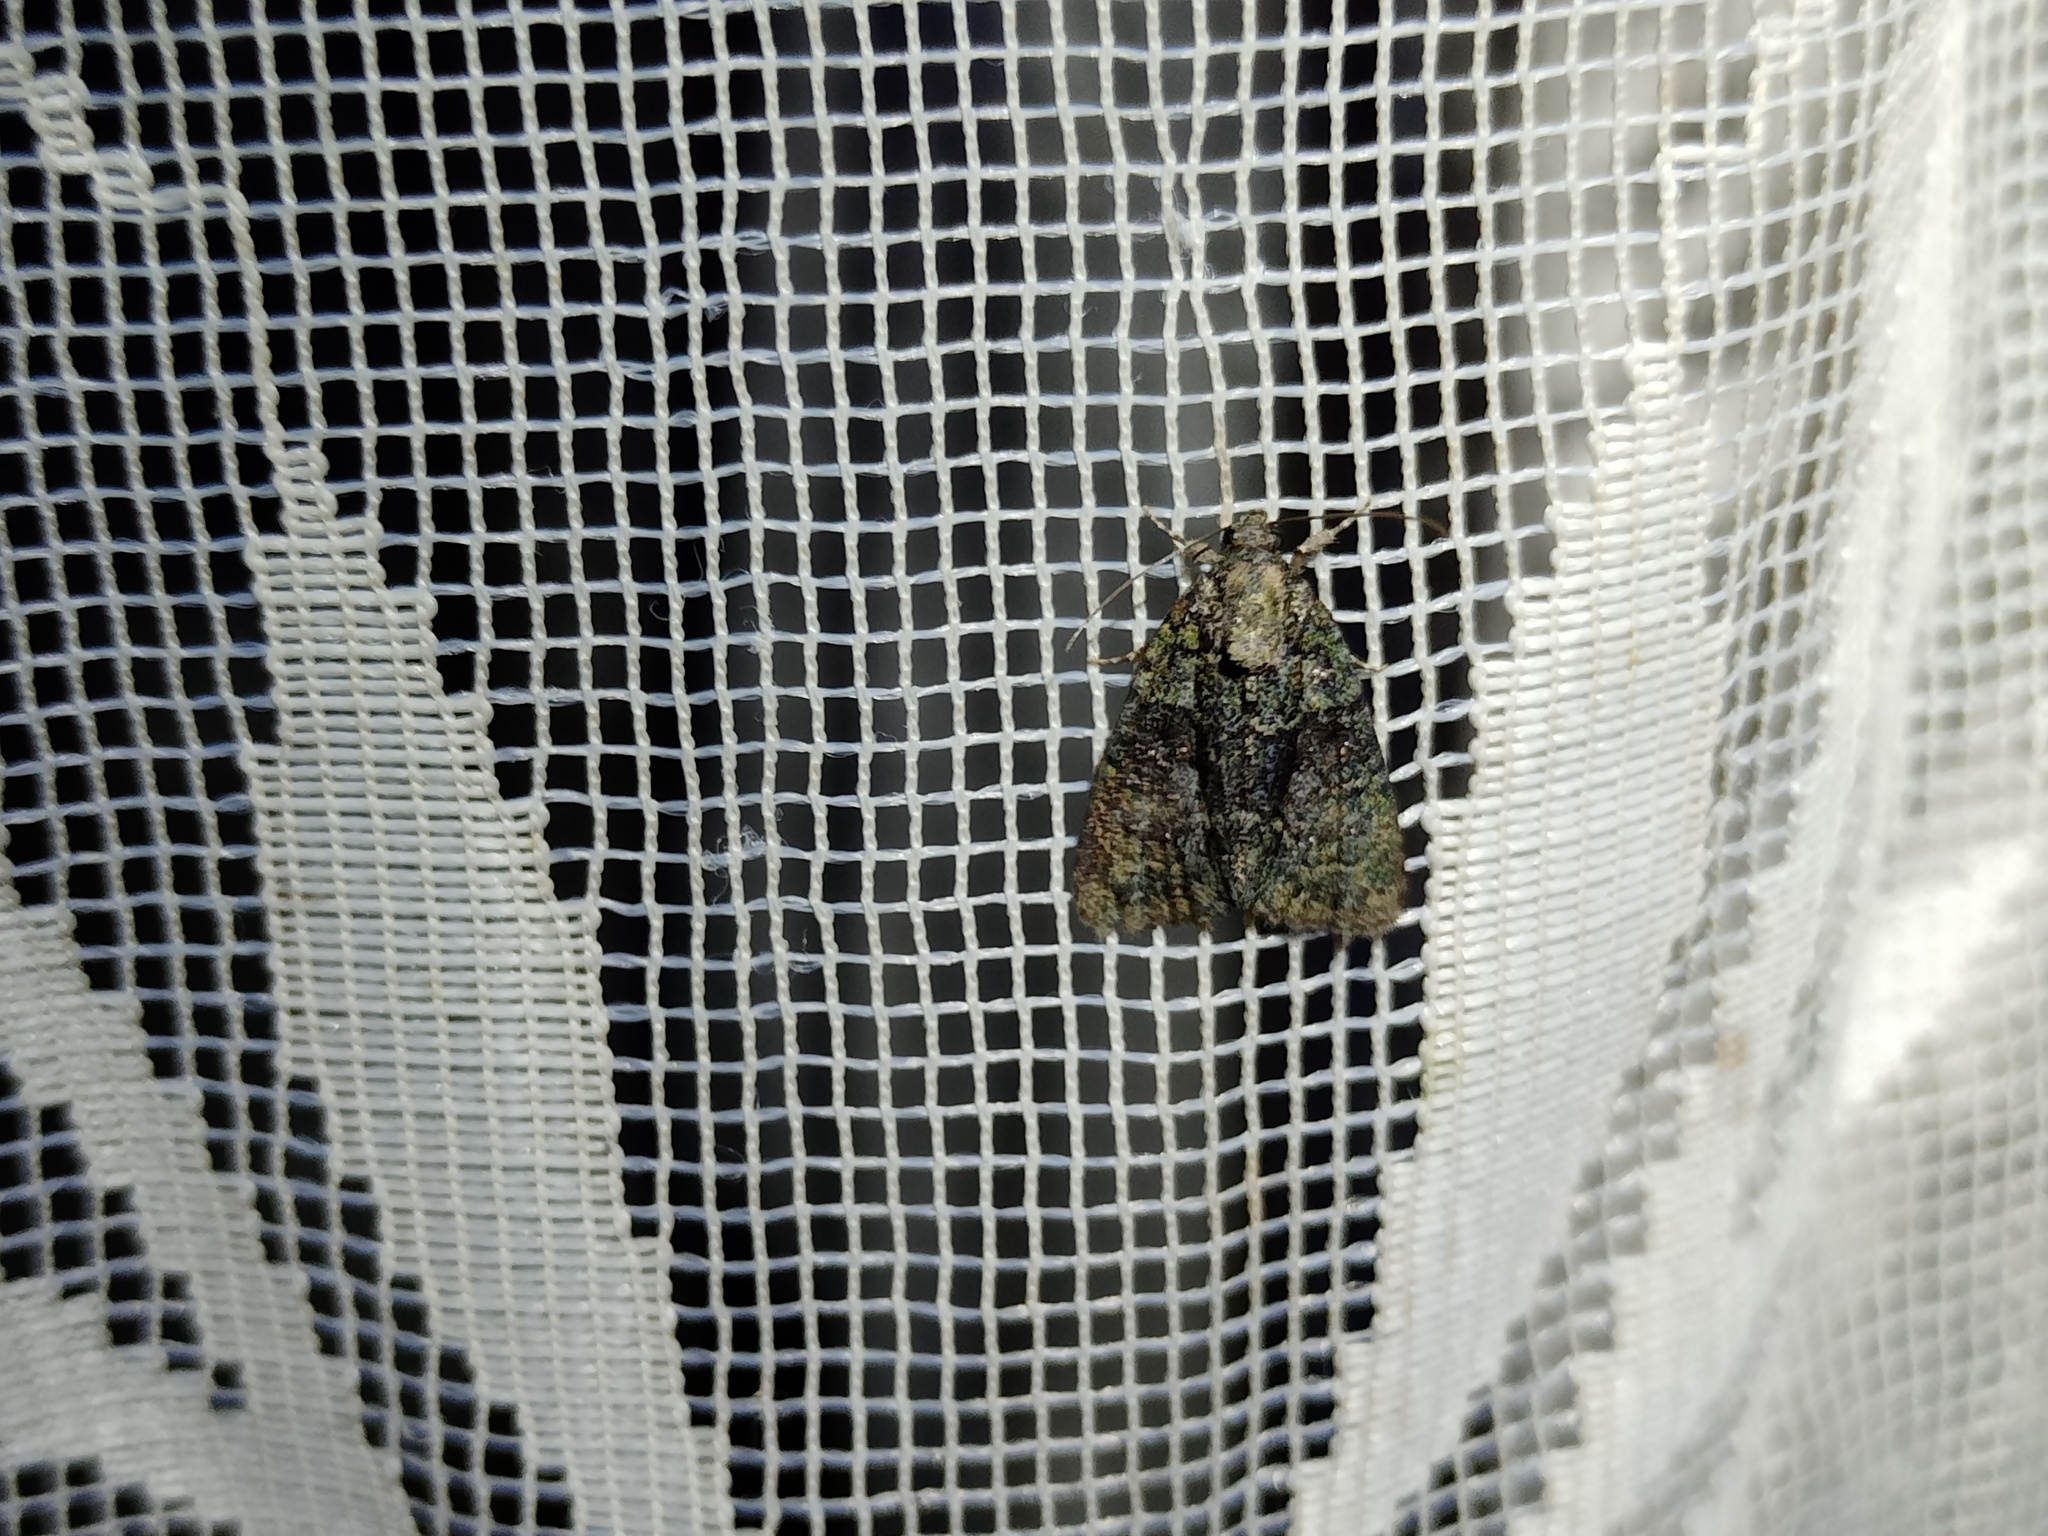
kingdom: Animalia
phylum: Arthropoda
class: Insecta
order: Lepidoptera
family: Noctuidae
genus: Cryphia
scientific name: Cryphia algae
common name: Tree-lichen beauty
